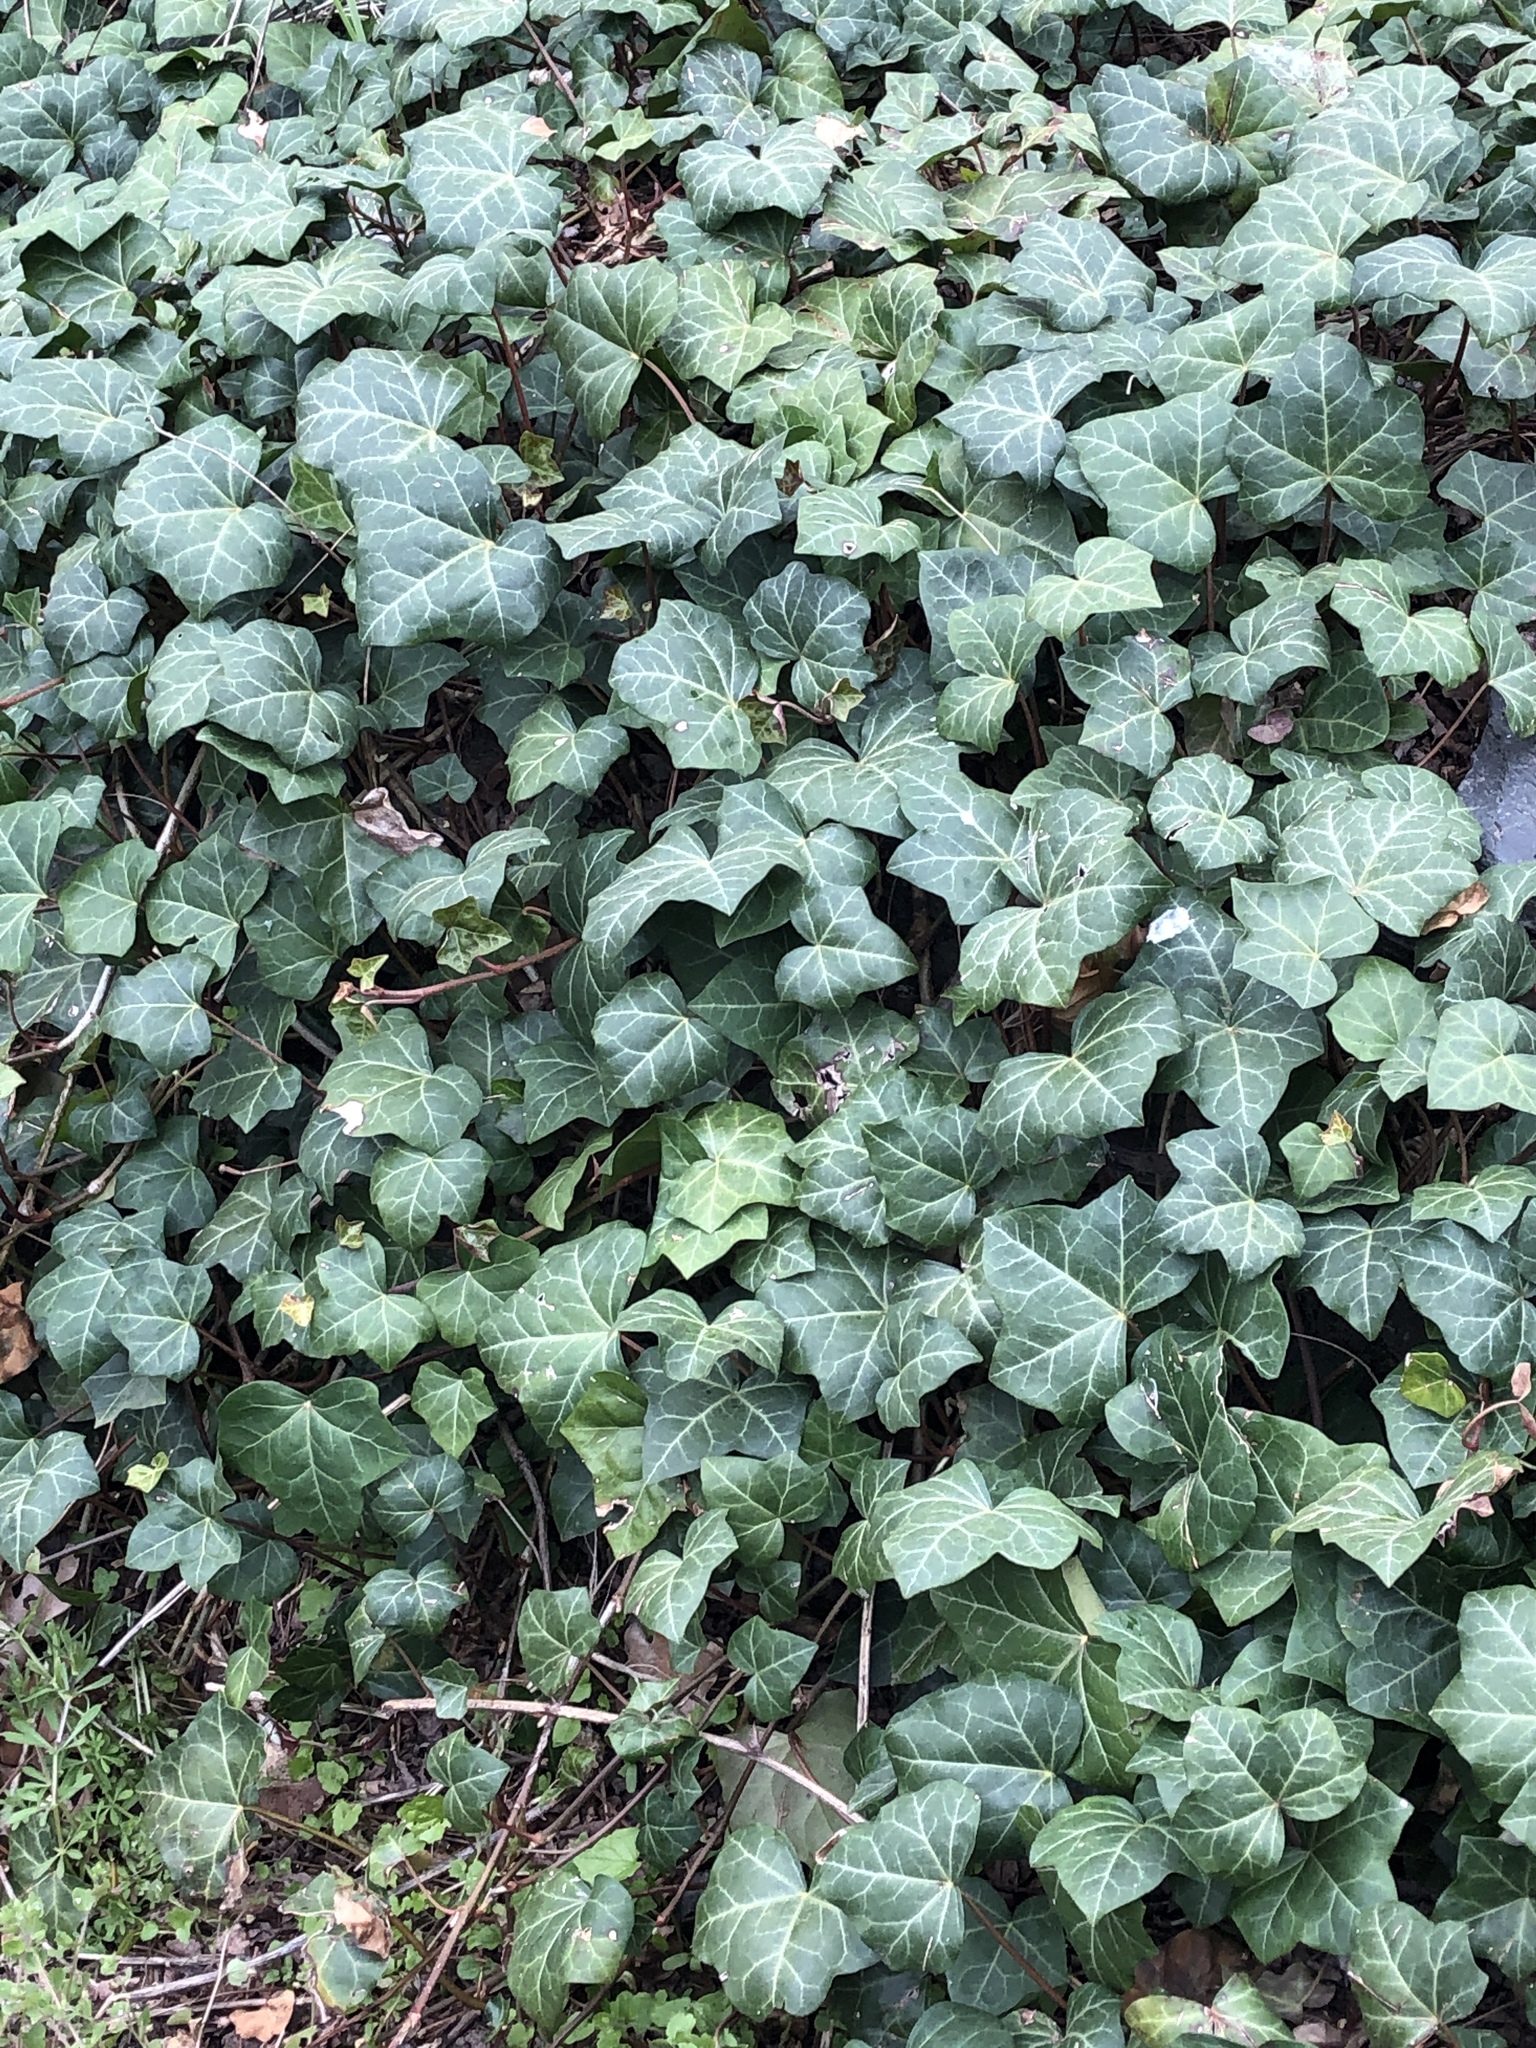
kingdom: Plantae
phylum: Tracheophyta
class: Magnoliopsida
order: Apiales
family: Araliaceae
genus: Hedera
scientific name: Hedera helix
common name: Ivy
